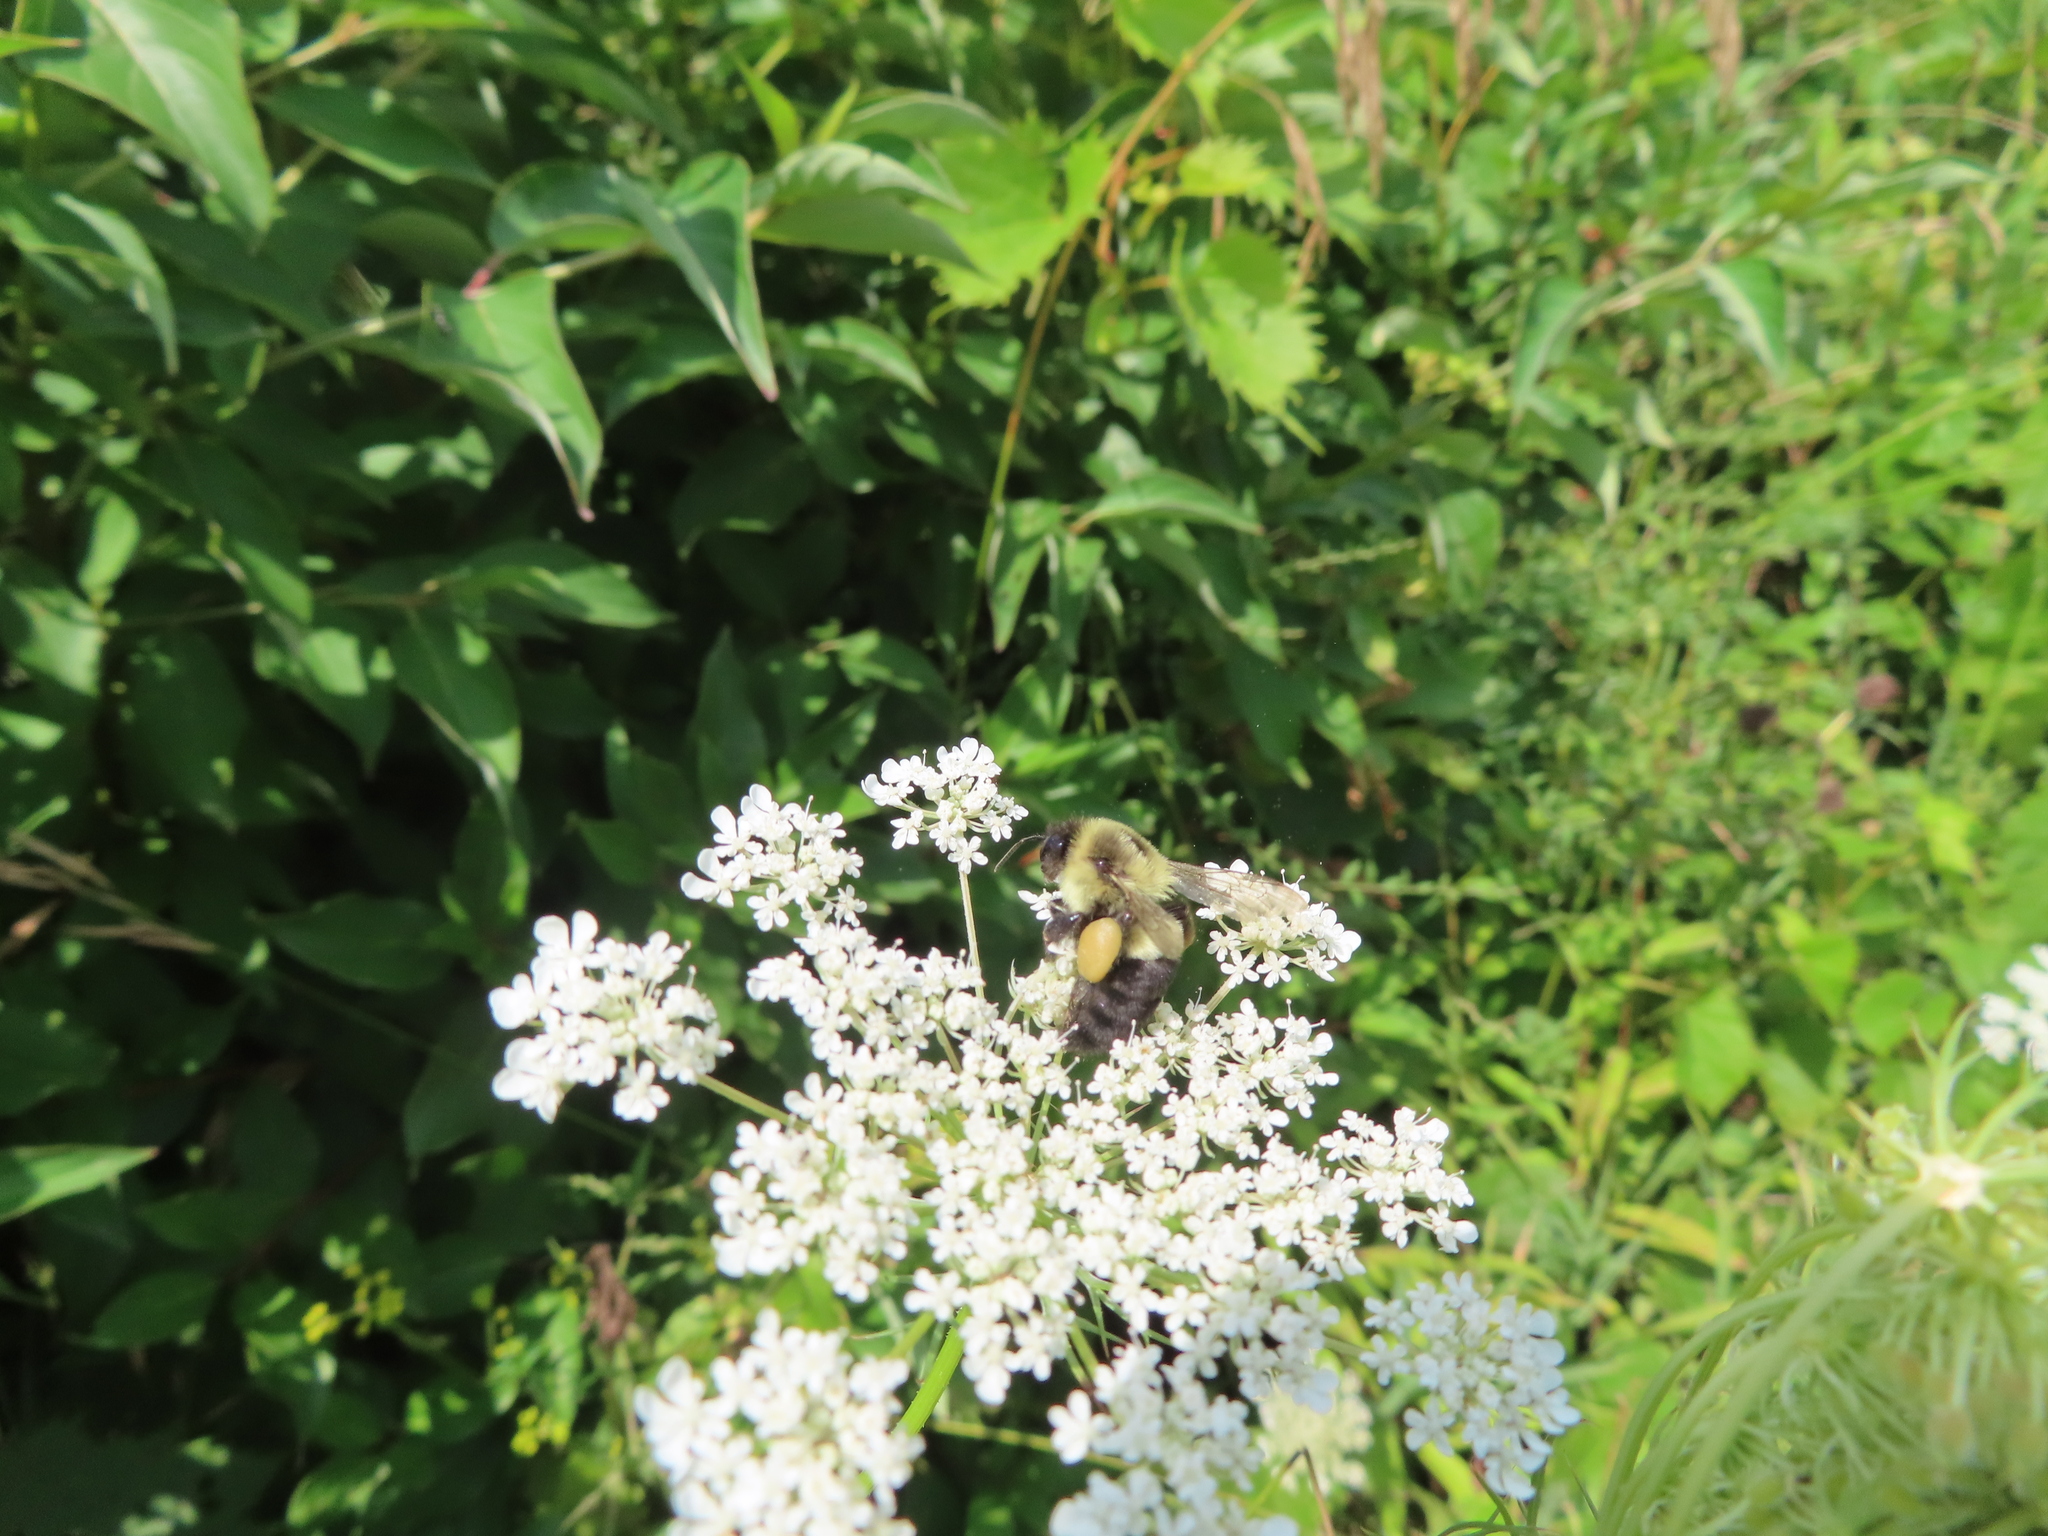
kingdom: Animalia
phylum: Arthropoda
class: Insecta
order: Hymenoptera
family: Apidae
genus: Bombus
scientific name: Bombus impatiens
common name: Common eastern bumble bee
